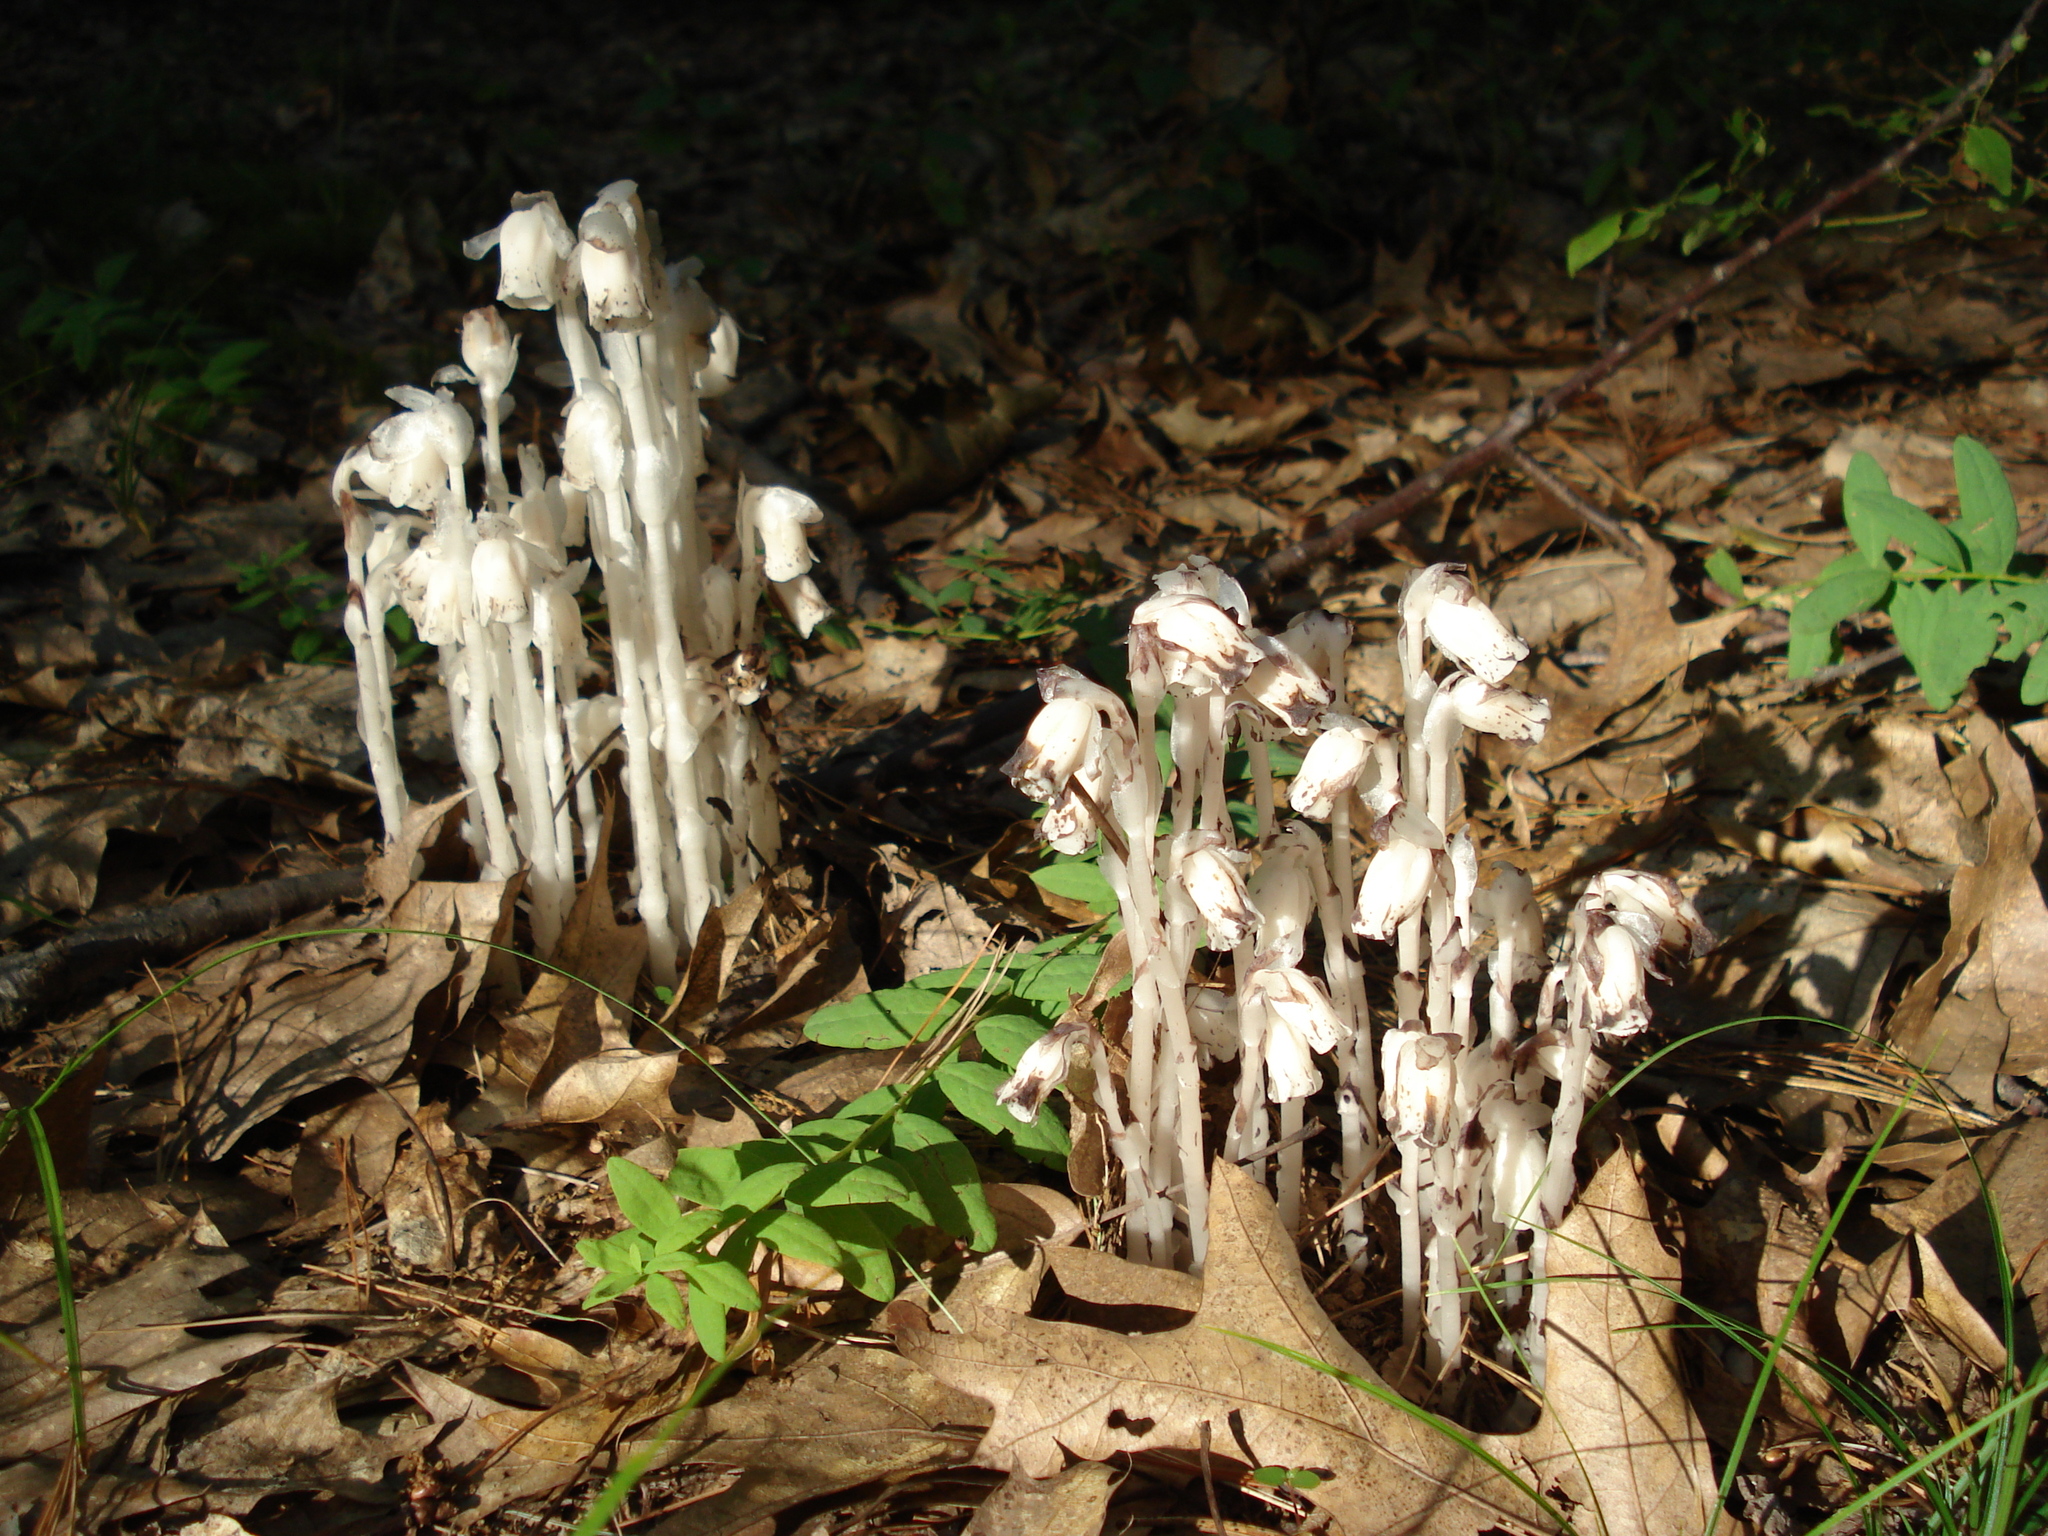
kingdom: Plantae
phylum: Tracheophyta
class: Magnoliopsida
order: Ericales
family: Ericaceae
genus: Monotropa
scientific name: Monotropa uniflora
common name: Convulsion root
